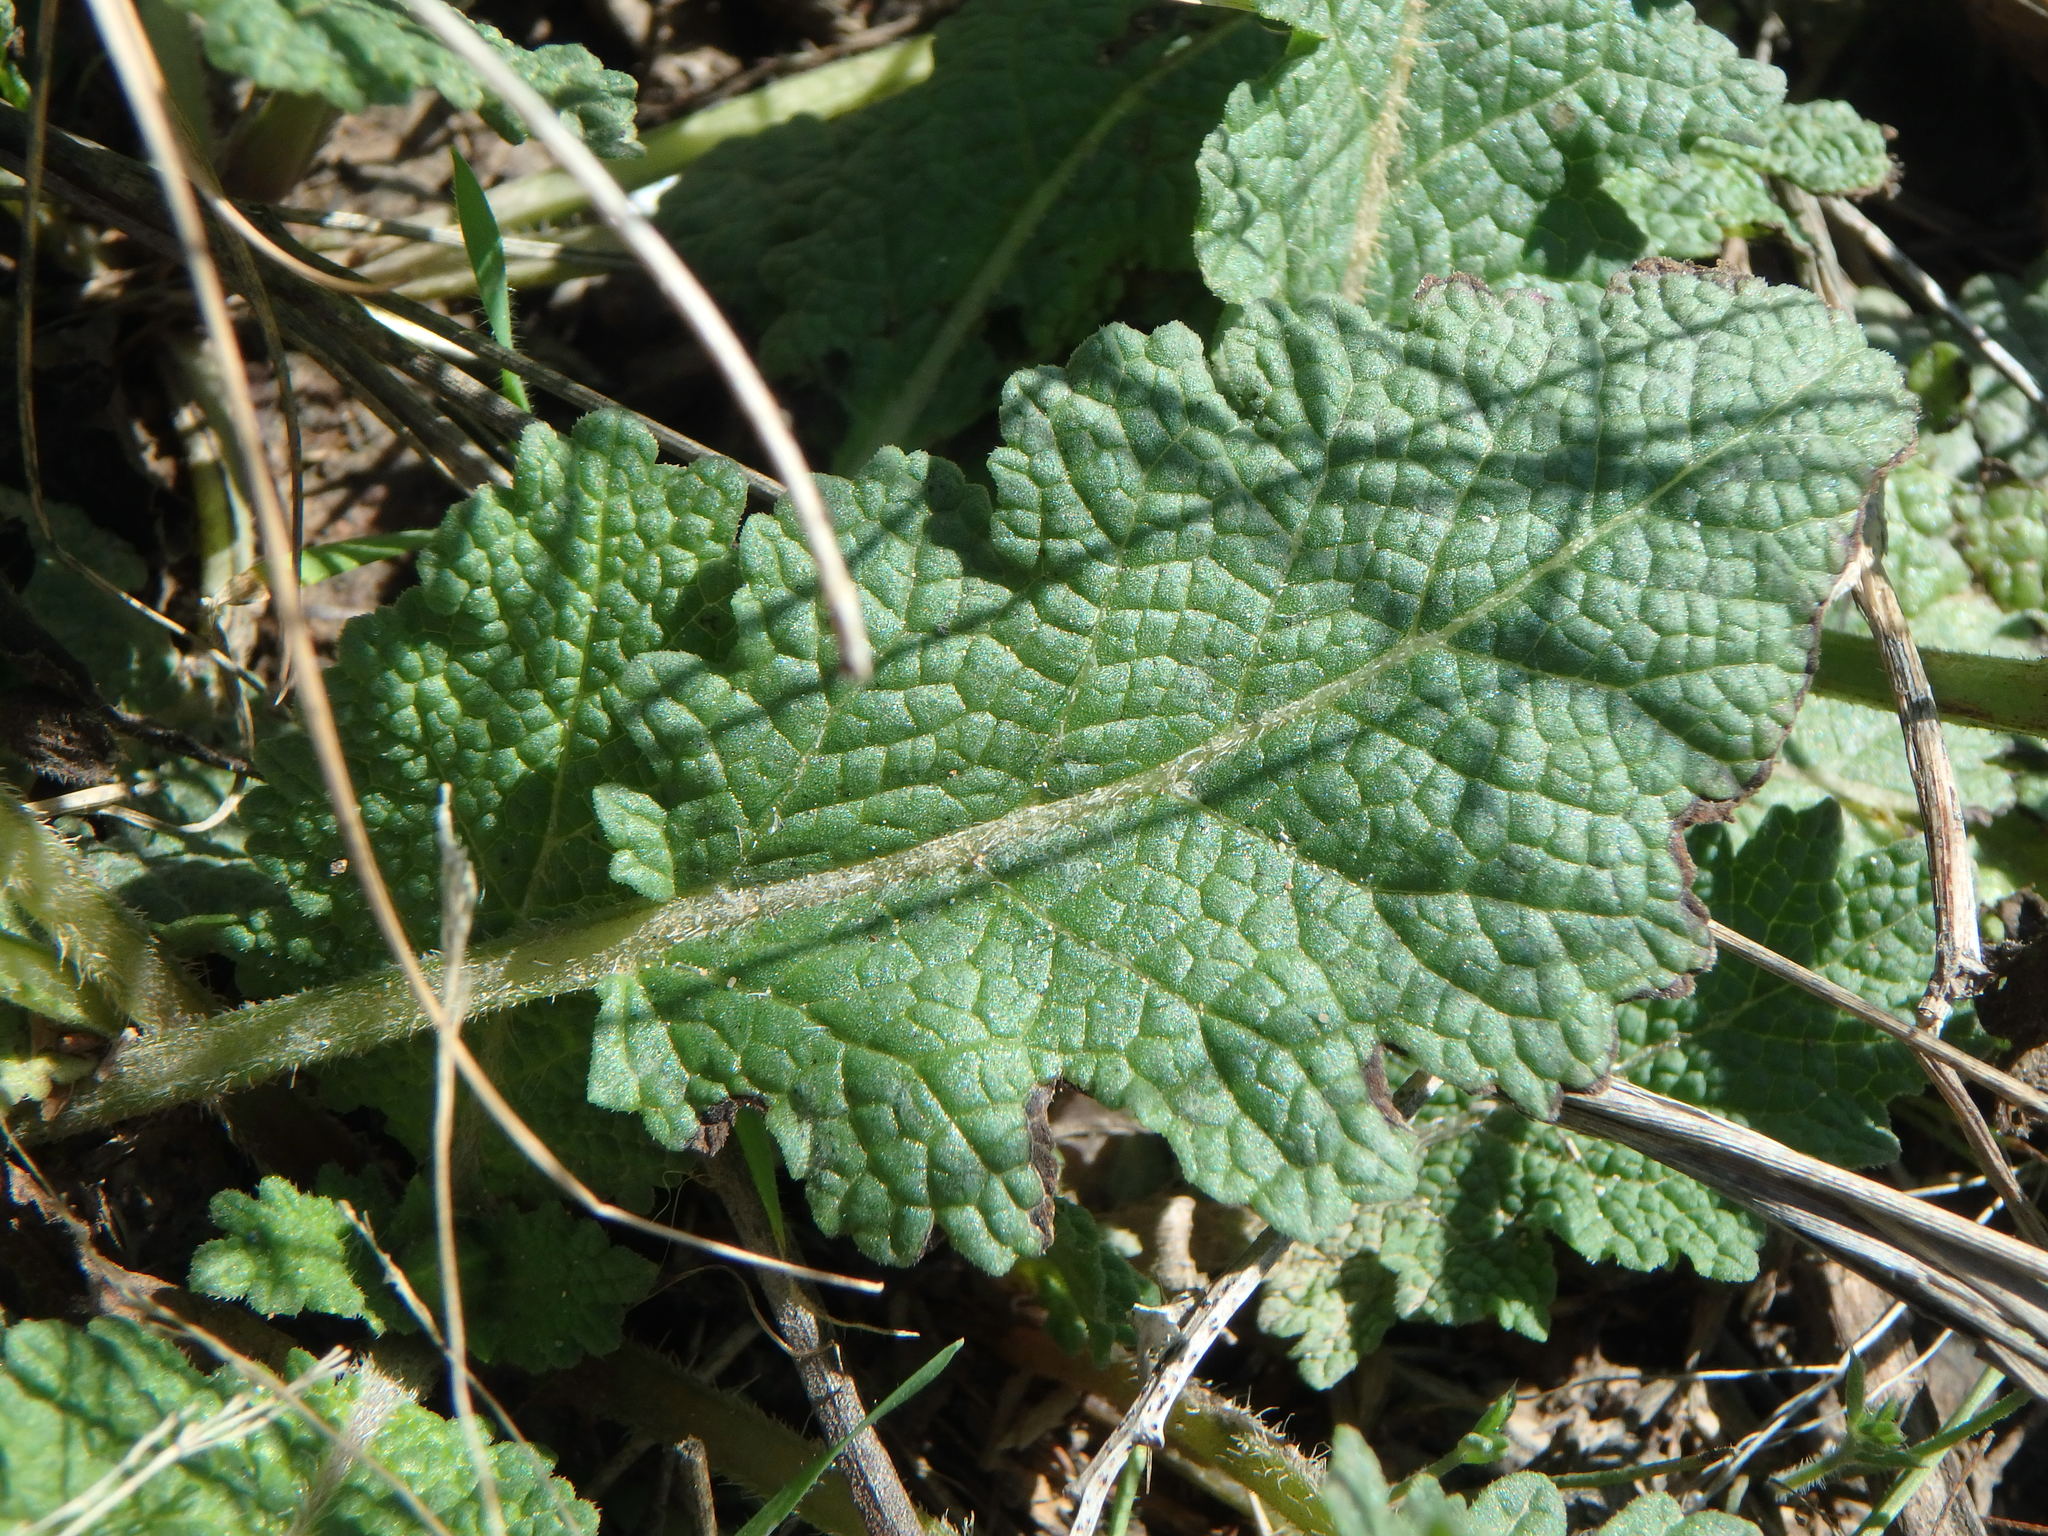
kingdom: Plantae
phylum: Tracheophyta
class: Magnoliopsida
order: Lamiales
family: Lamiaceae
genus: Salvia
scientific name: Salvia verbenaca
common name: Wild clary
